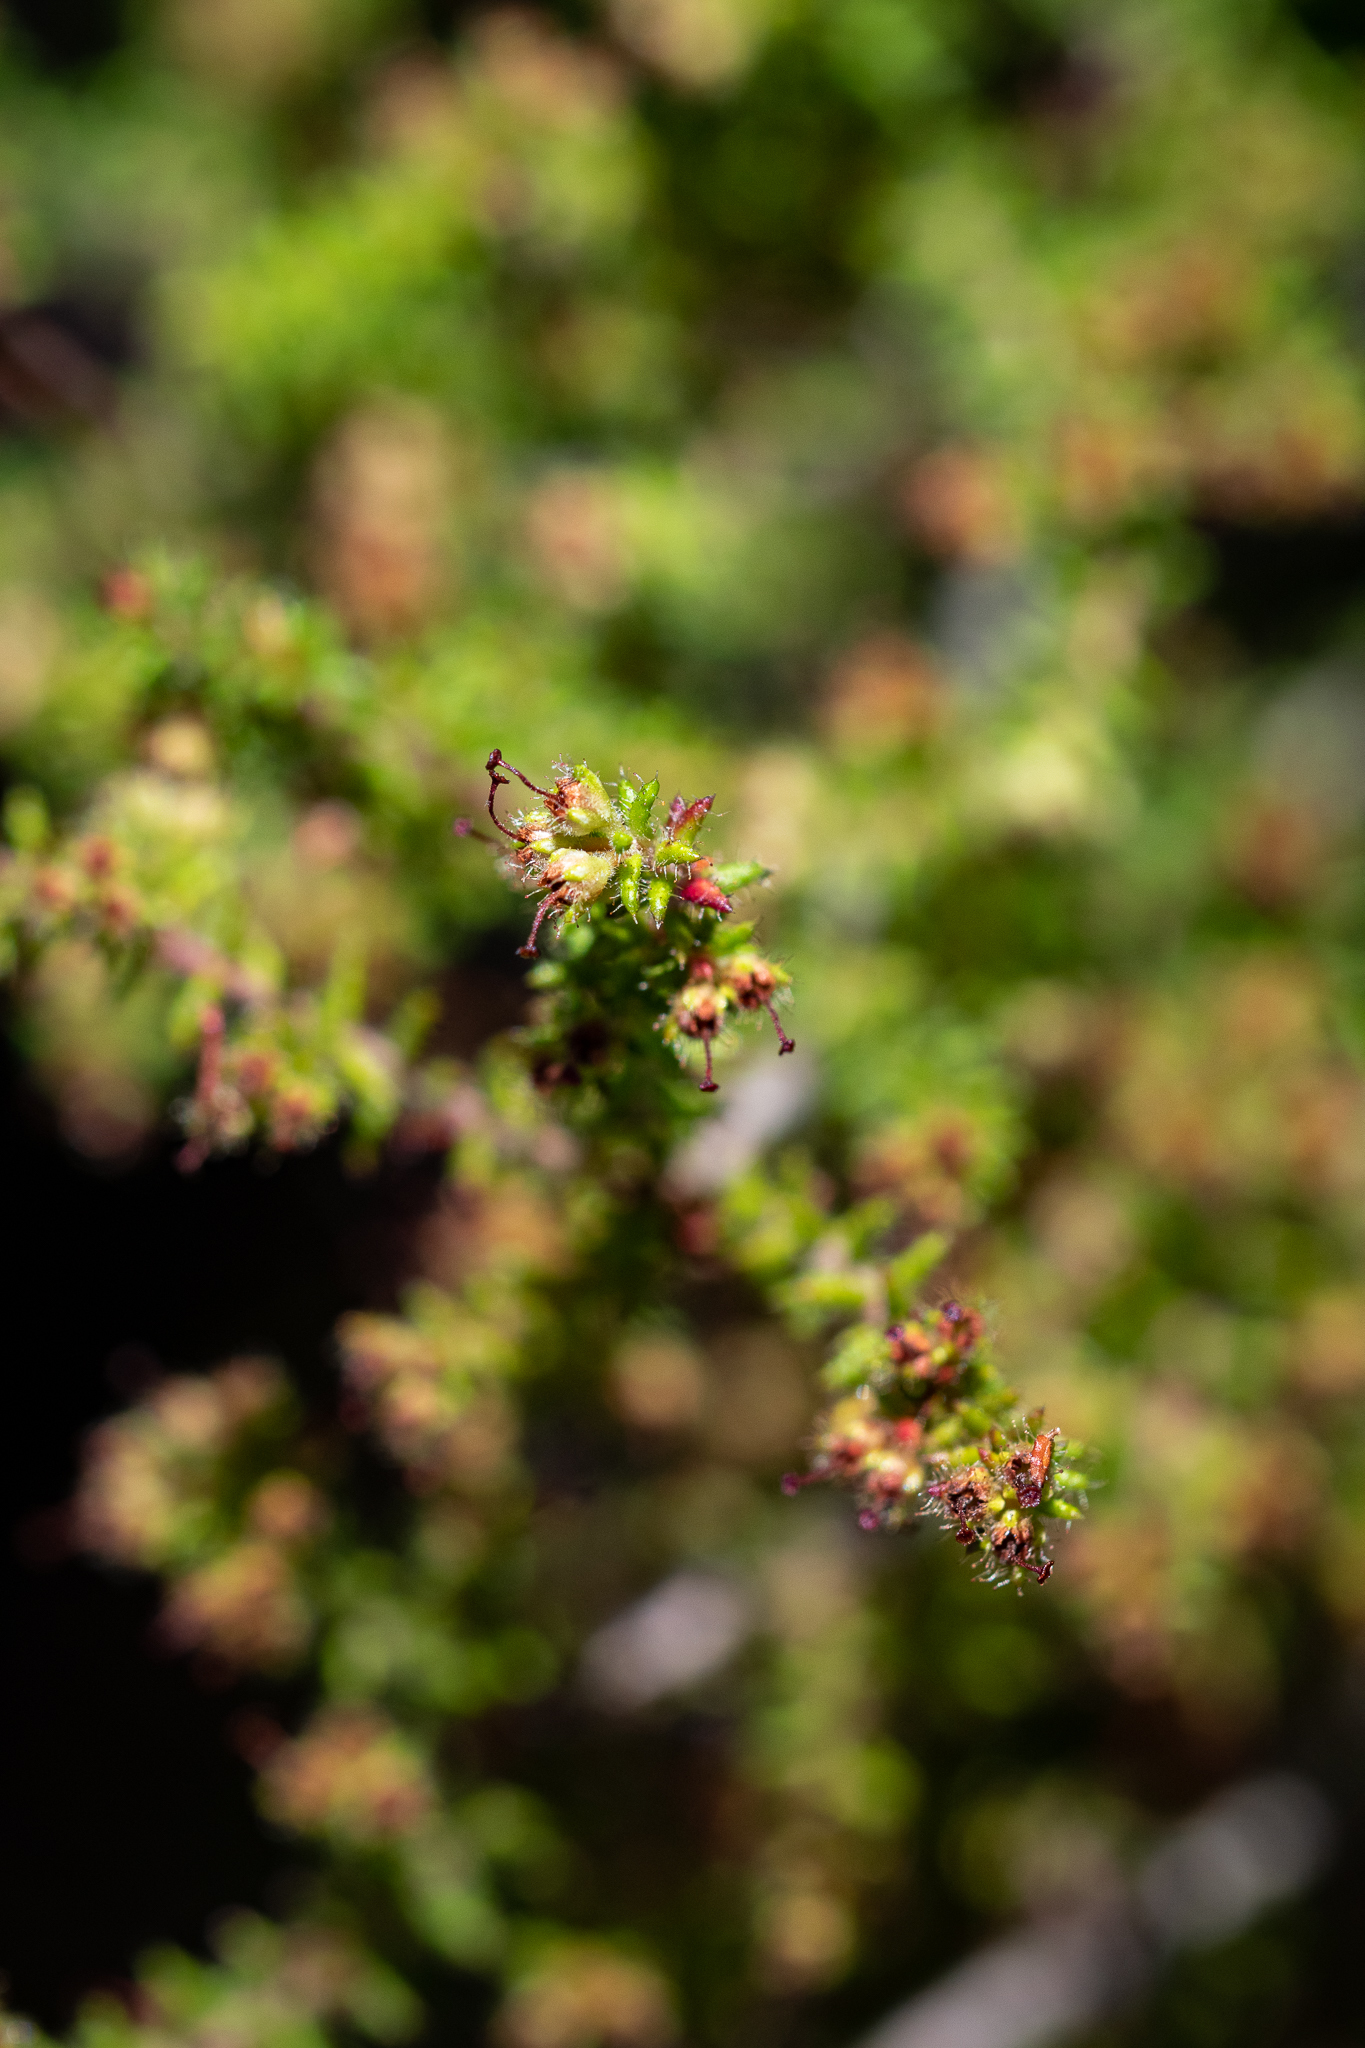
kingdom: Plantae
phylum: Tracheophyta
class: Magnoliopsida
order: Ericales
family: Ericaceae
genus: Erica
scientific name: Erica exleeana
